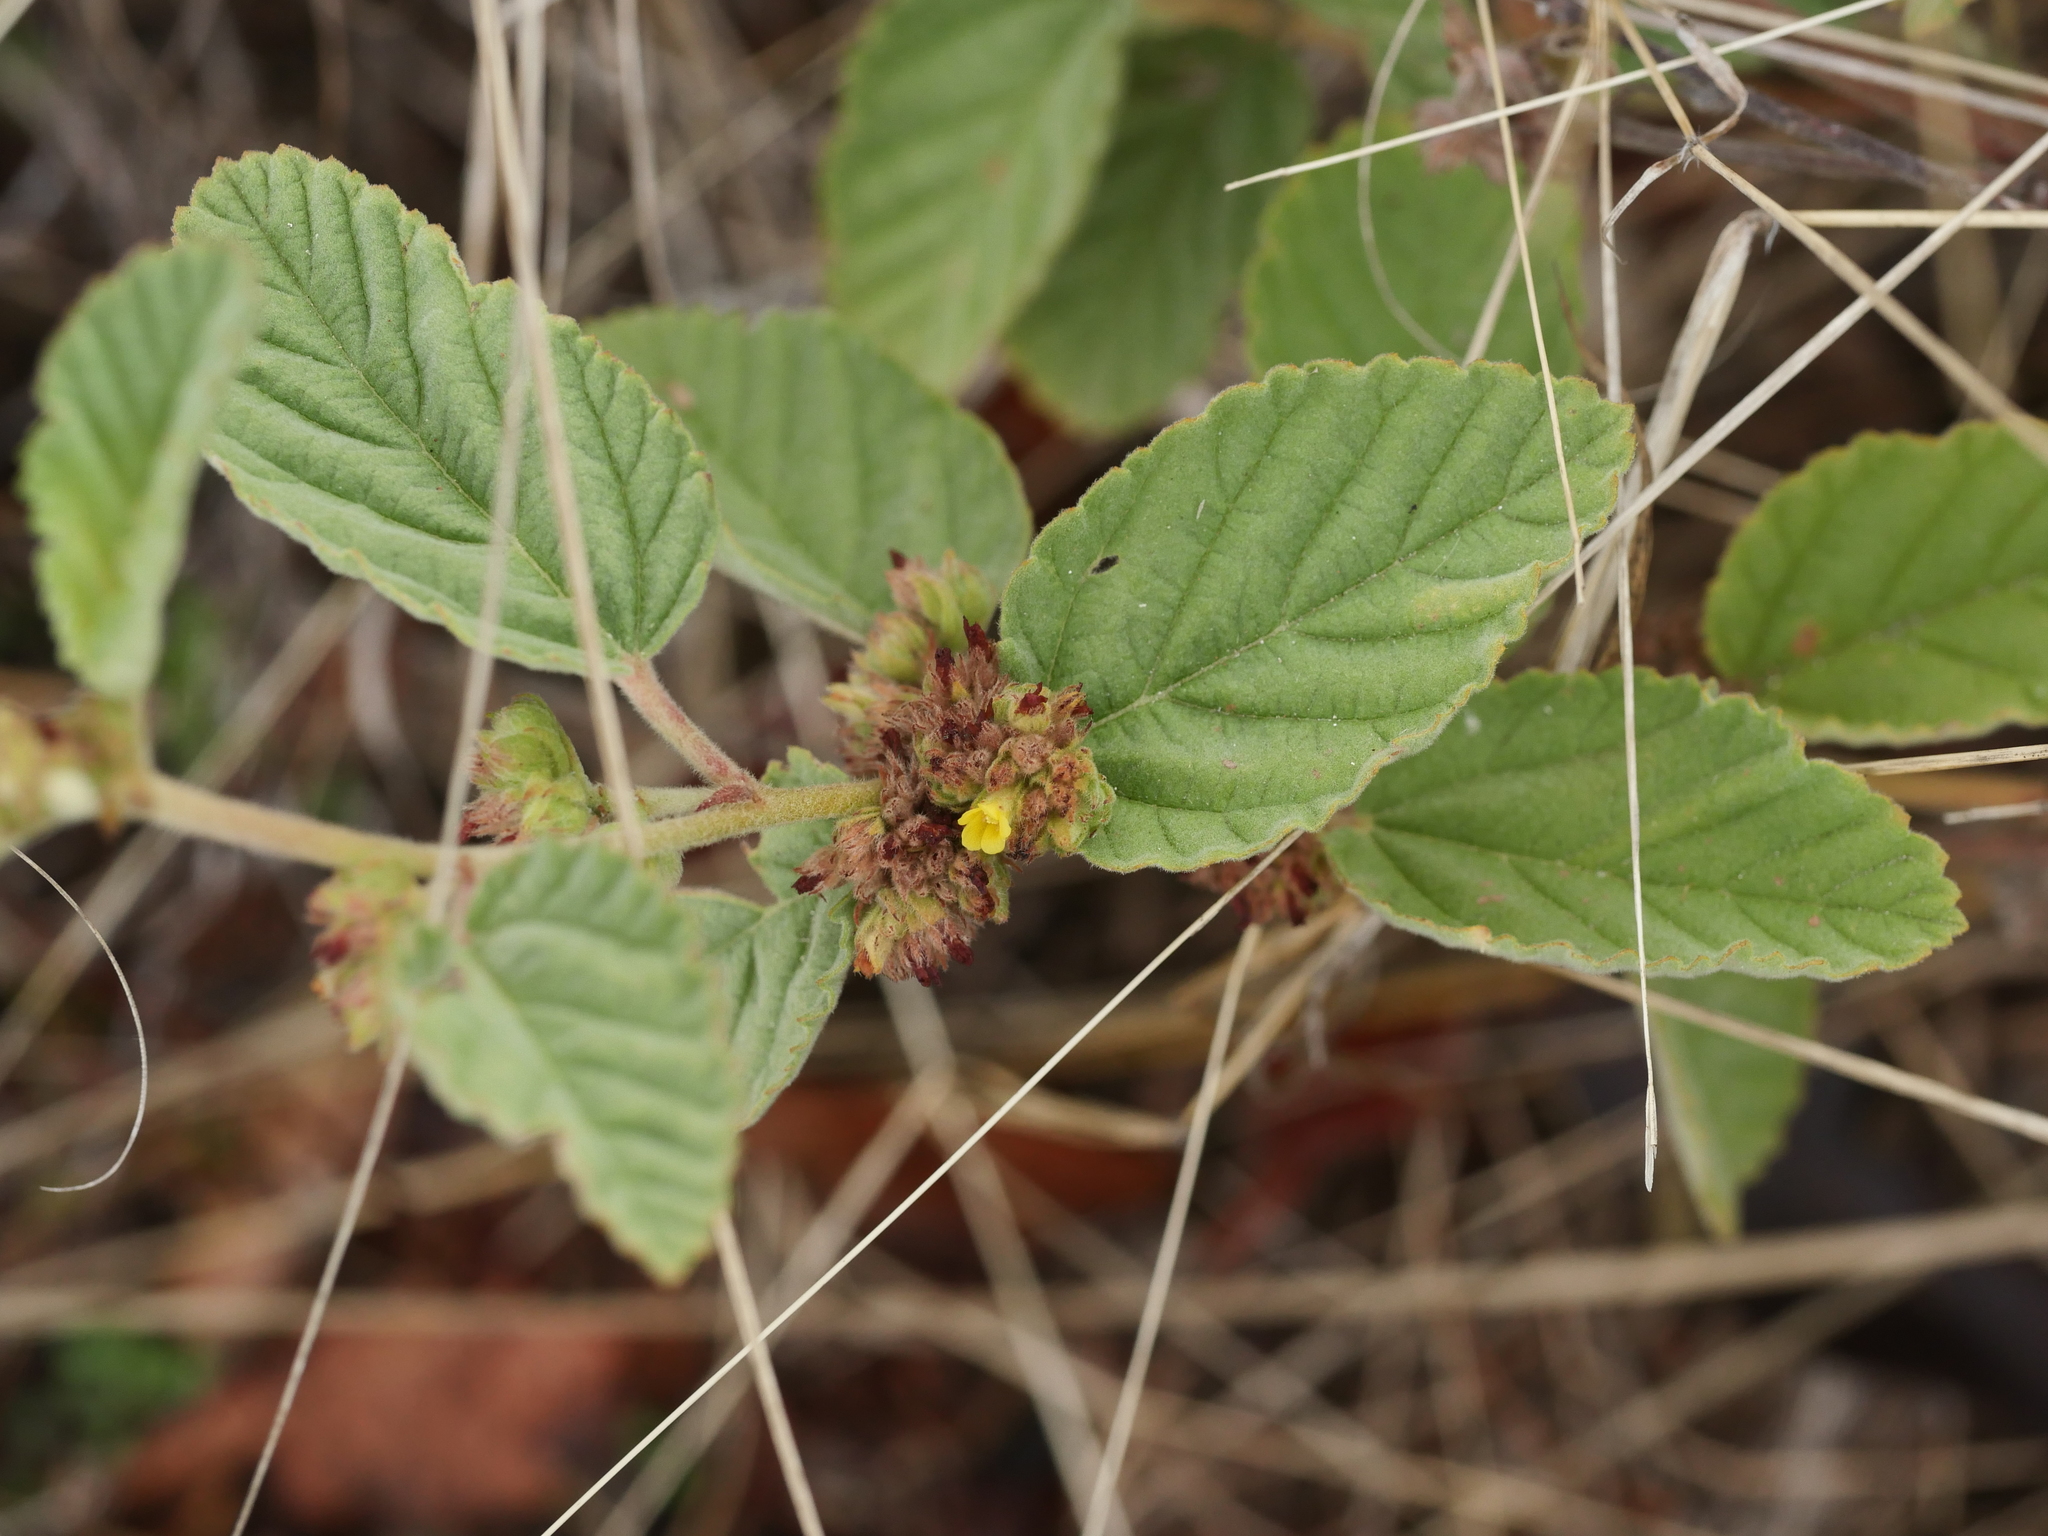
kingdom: Plantae
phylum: Tracheophyta
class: Magnoliopsida
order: Malvales
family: Malvaceae
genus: Waltheria
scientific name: Waltheria indica
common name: Leather-coat
